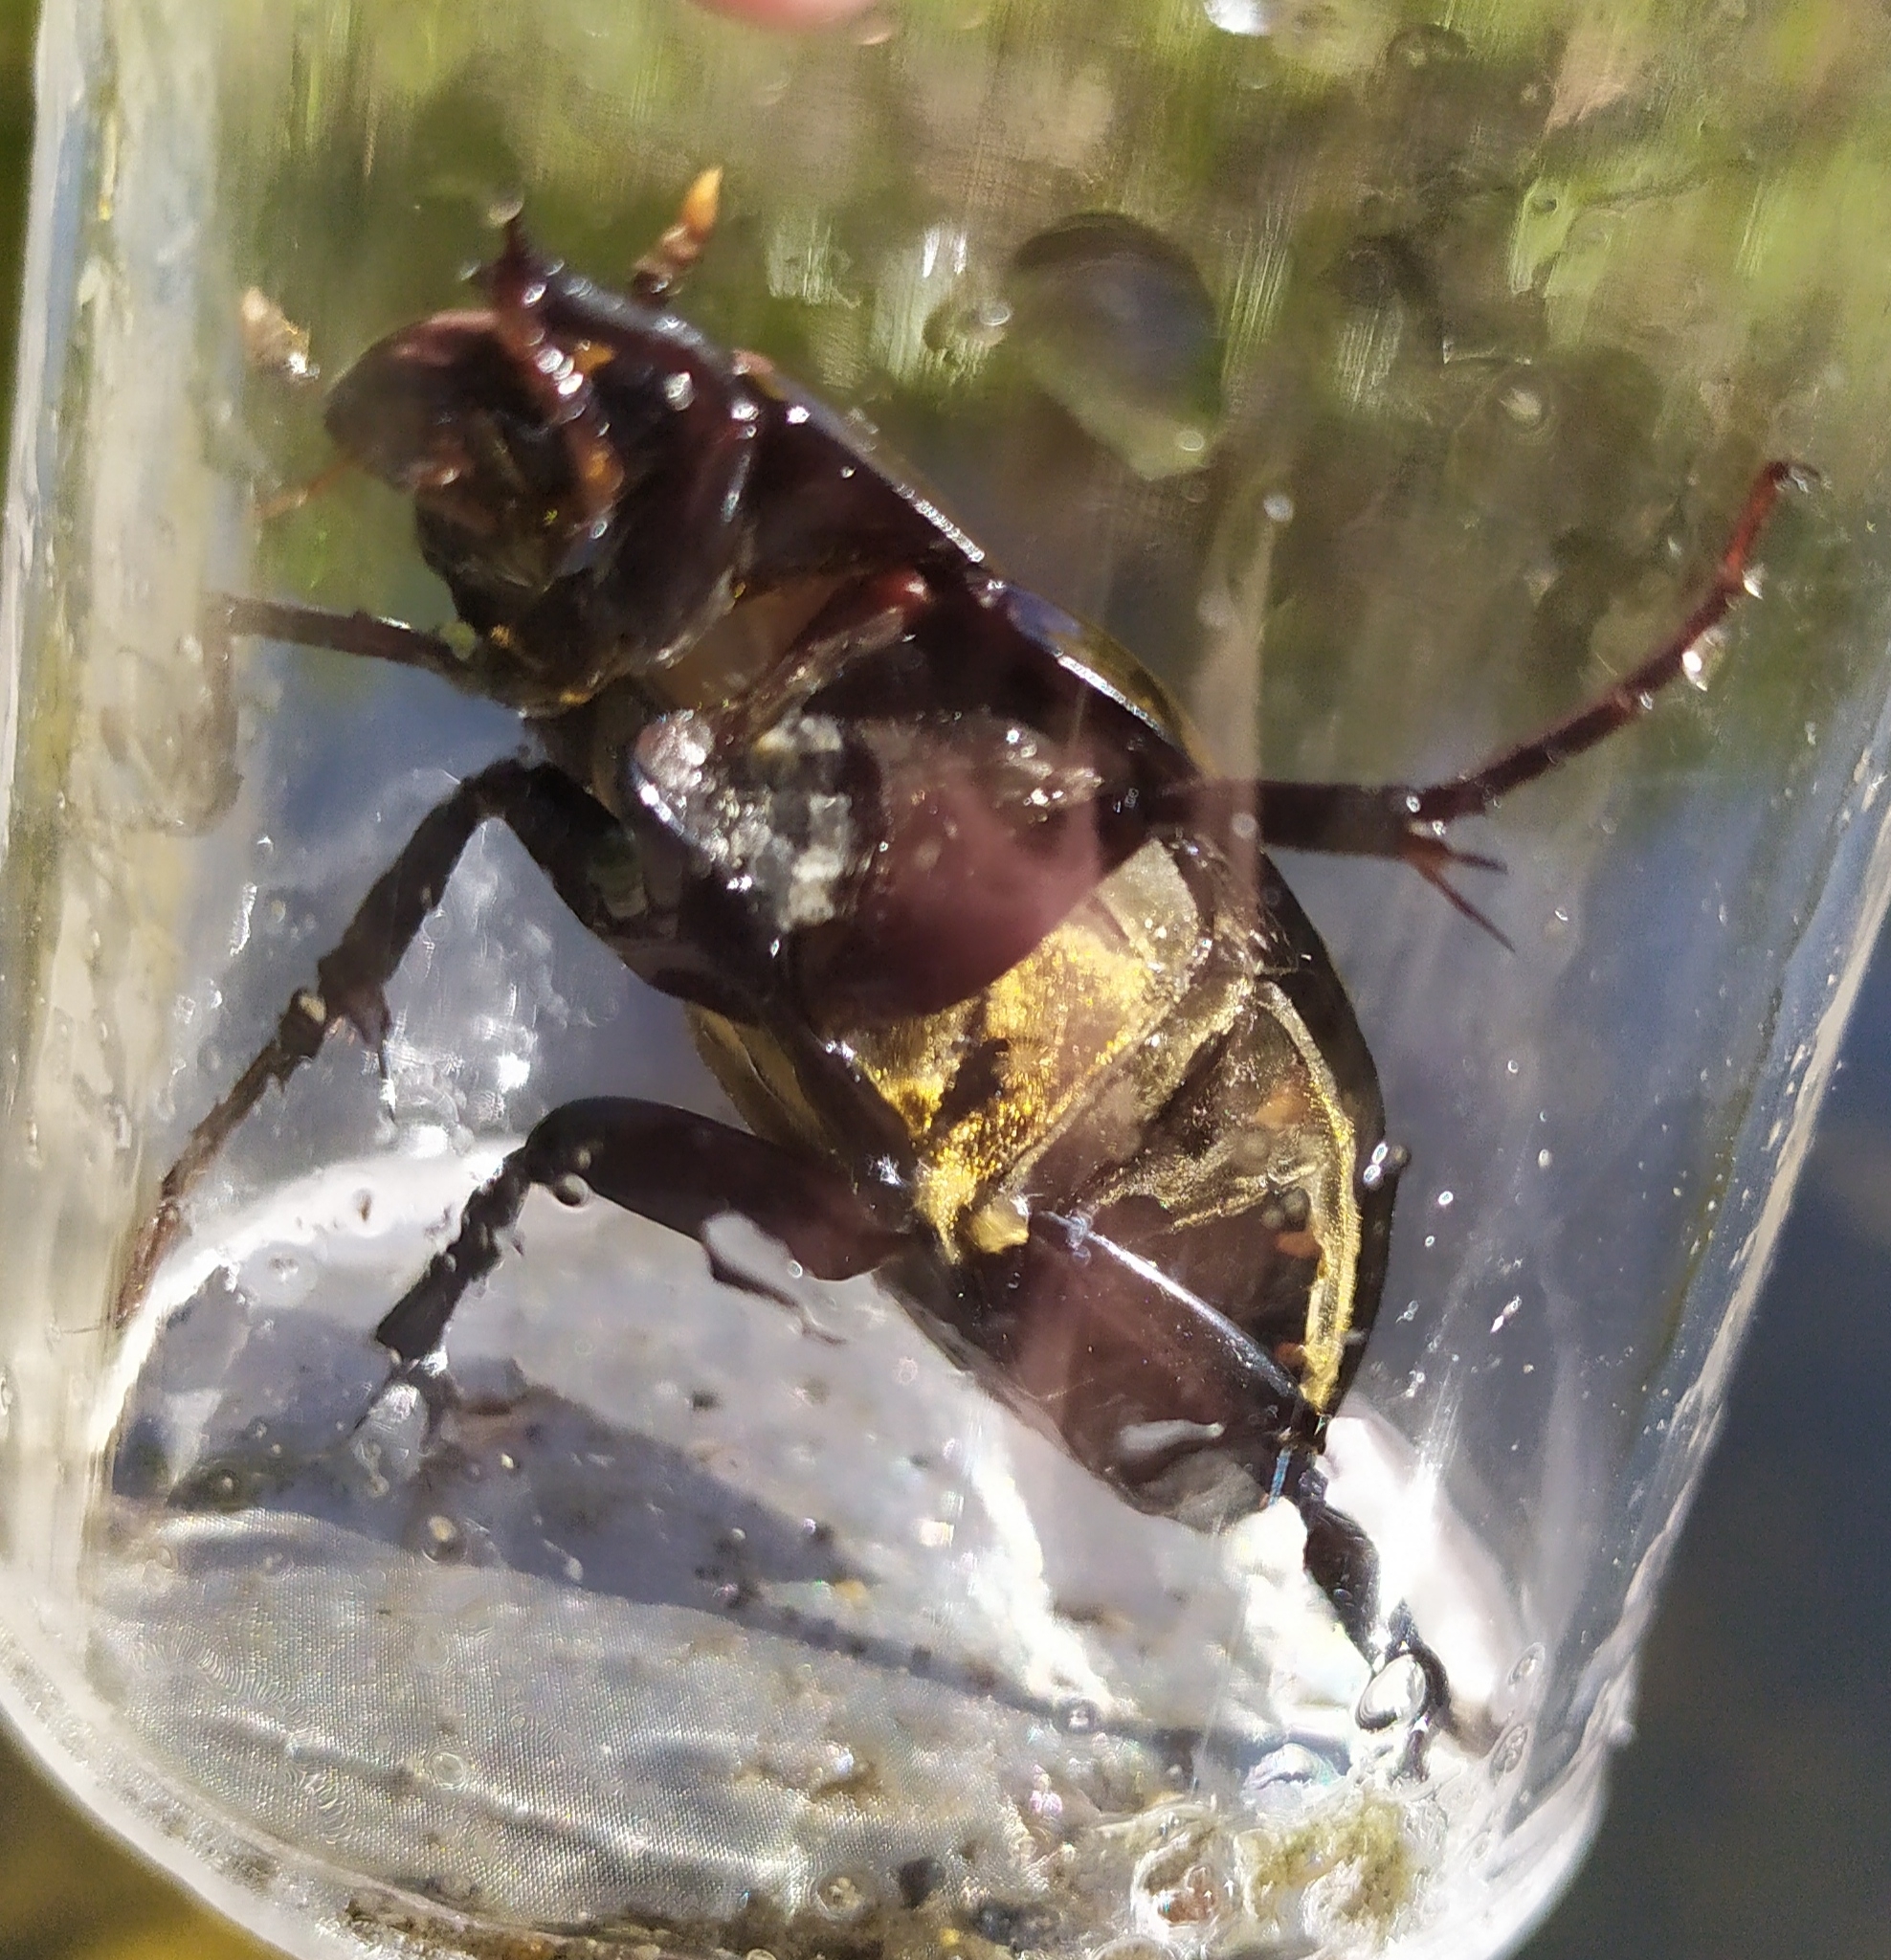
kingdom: Animalia
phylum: Arthropoda
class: Insecta
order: Coleoptera
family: Hydrophilidae
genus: Hydrophilus
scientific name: Hydrophilus piceus
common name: Great silver water beetle
